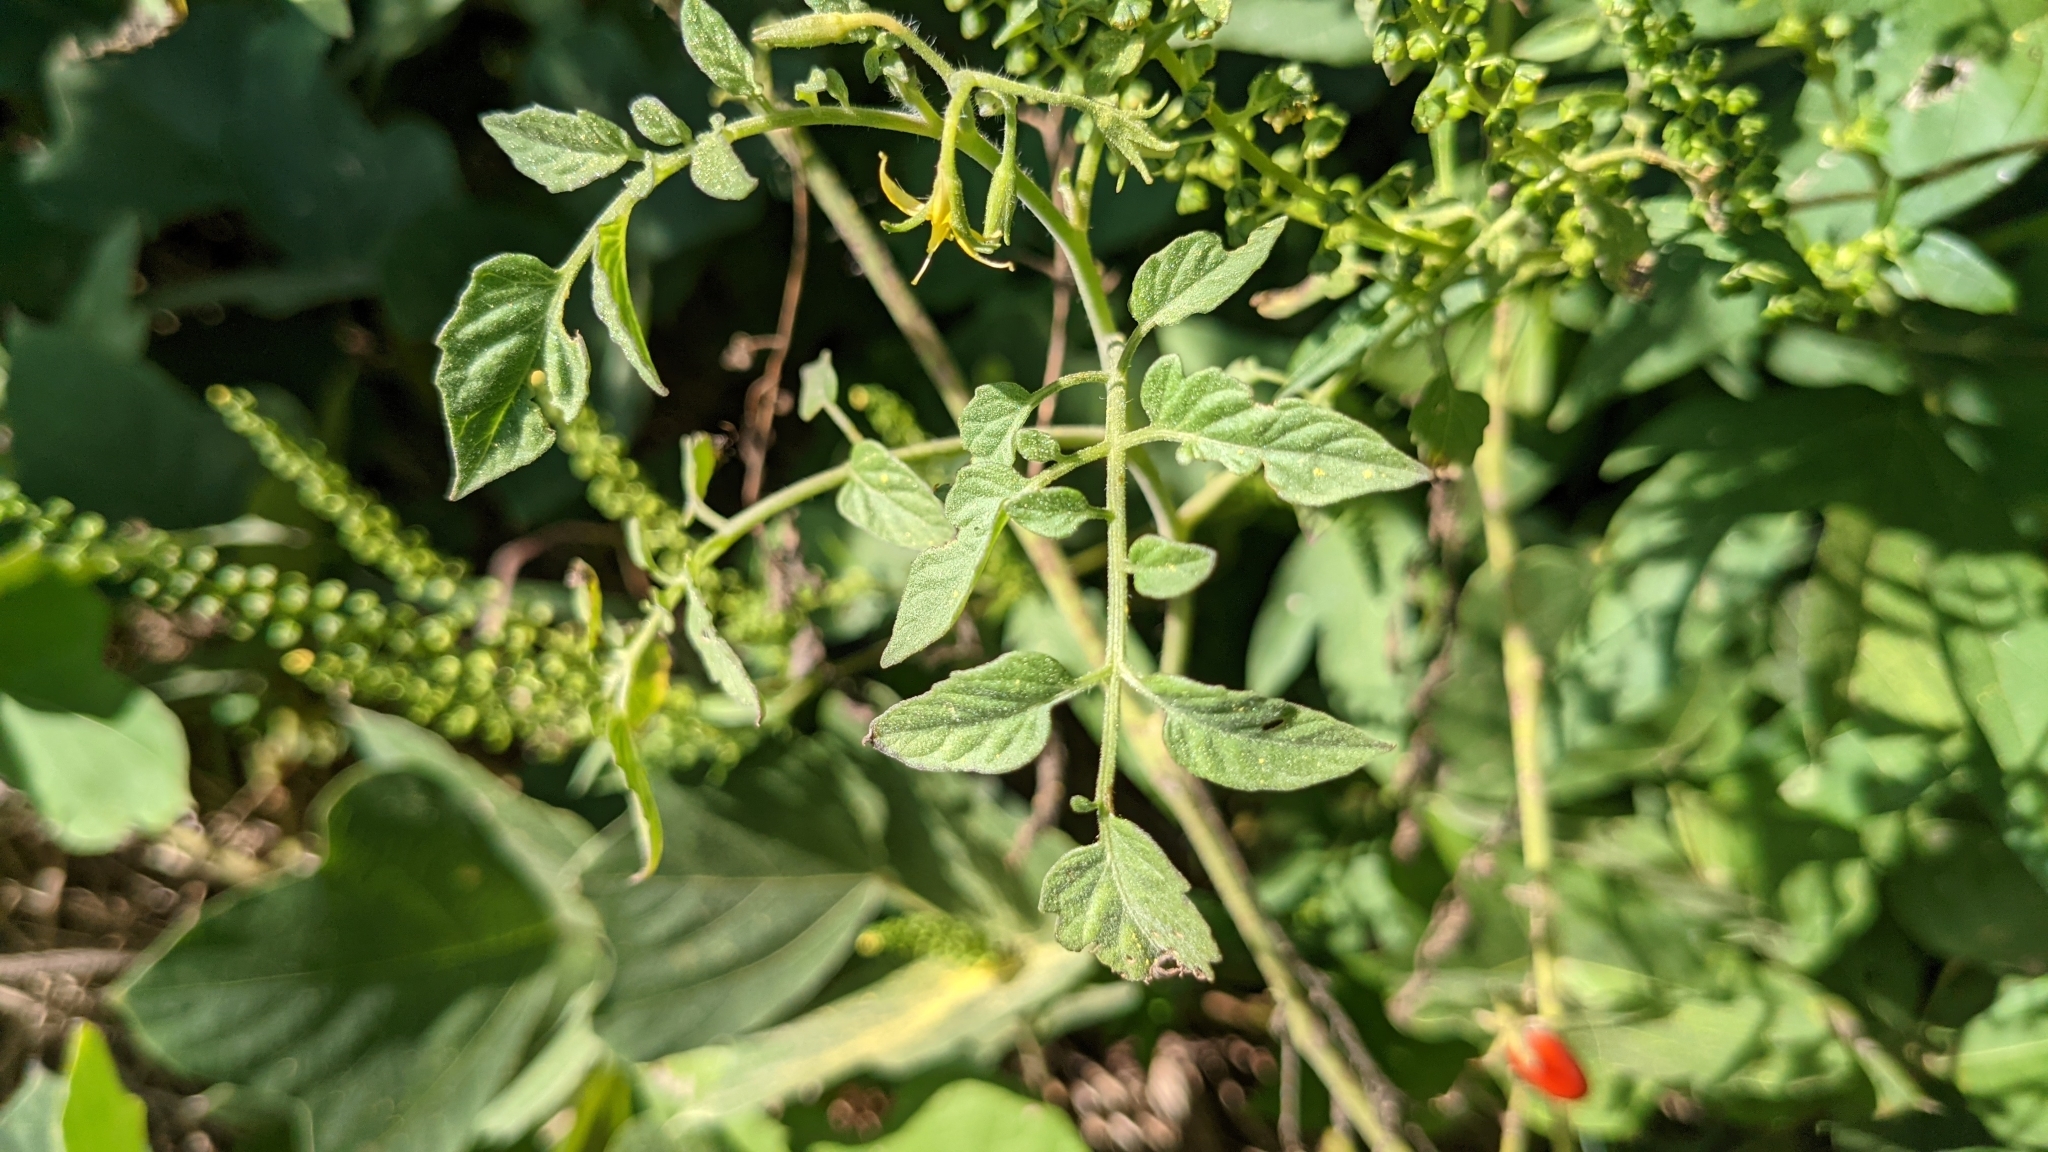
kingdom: Plantae
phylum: Tracheophyta
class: Magnoliopsida
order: Solanales
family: Solanaceae
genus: Solanum
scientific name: Solanum lycopersicum
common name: Garden tomato
